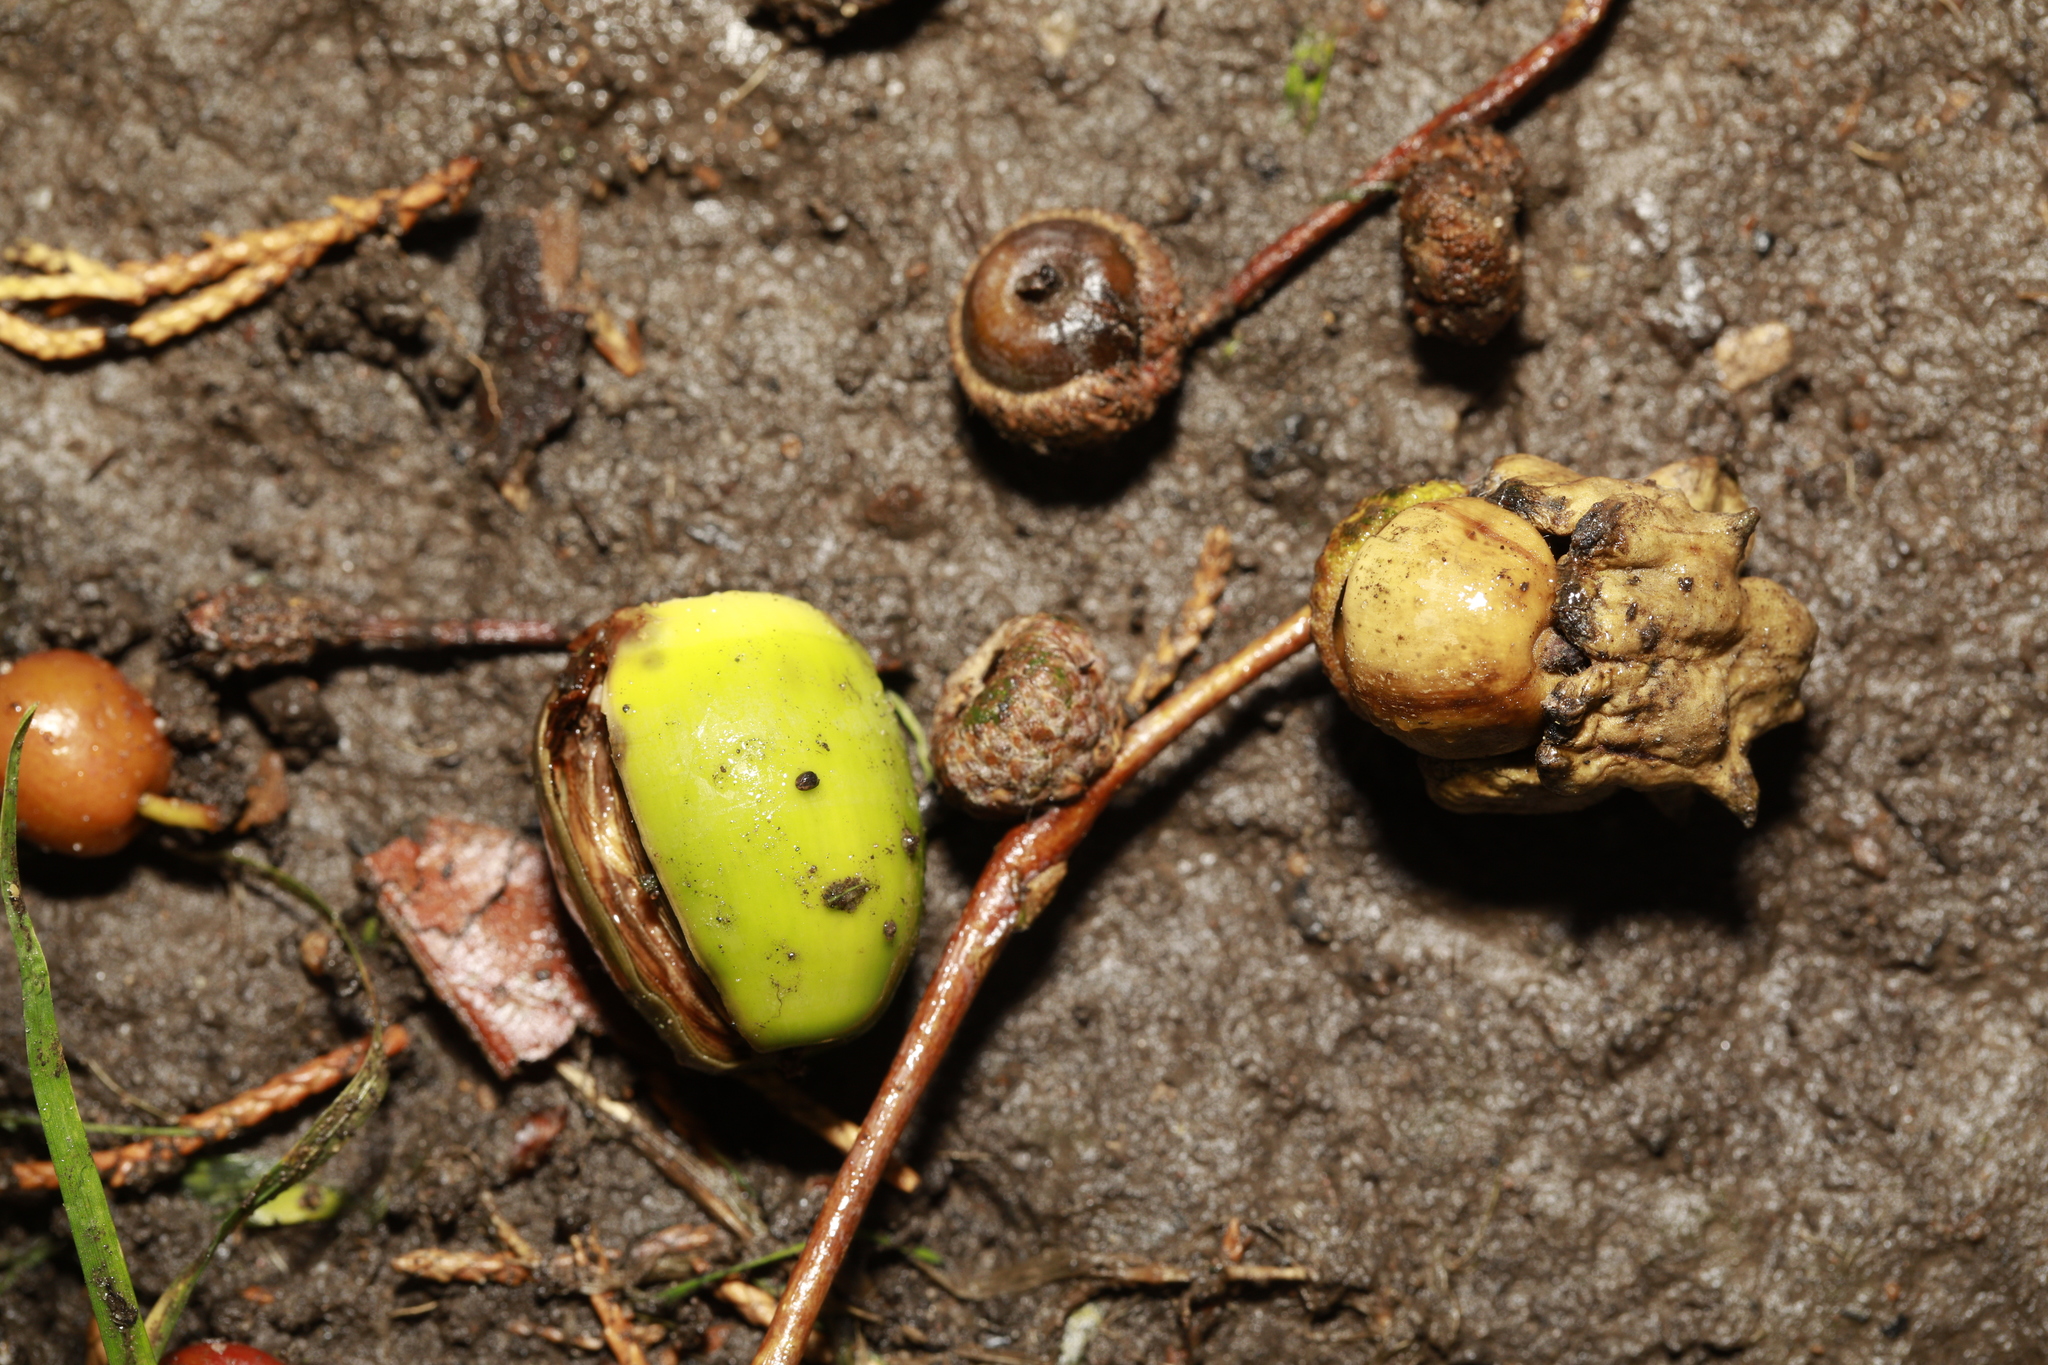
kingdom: Animalia
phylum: Arthropoda
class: Insecta
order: Hymenoptera
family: Cynipidae
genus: Andricus
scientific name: Andricus quercuscalicis
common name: Knopper gall
